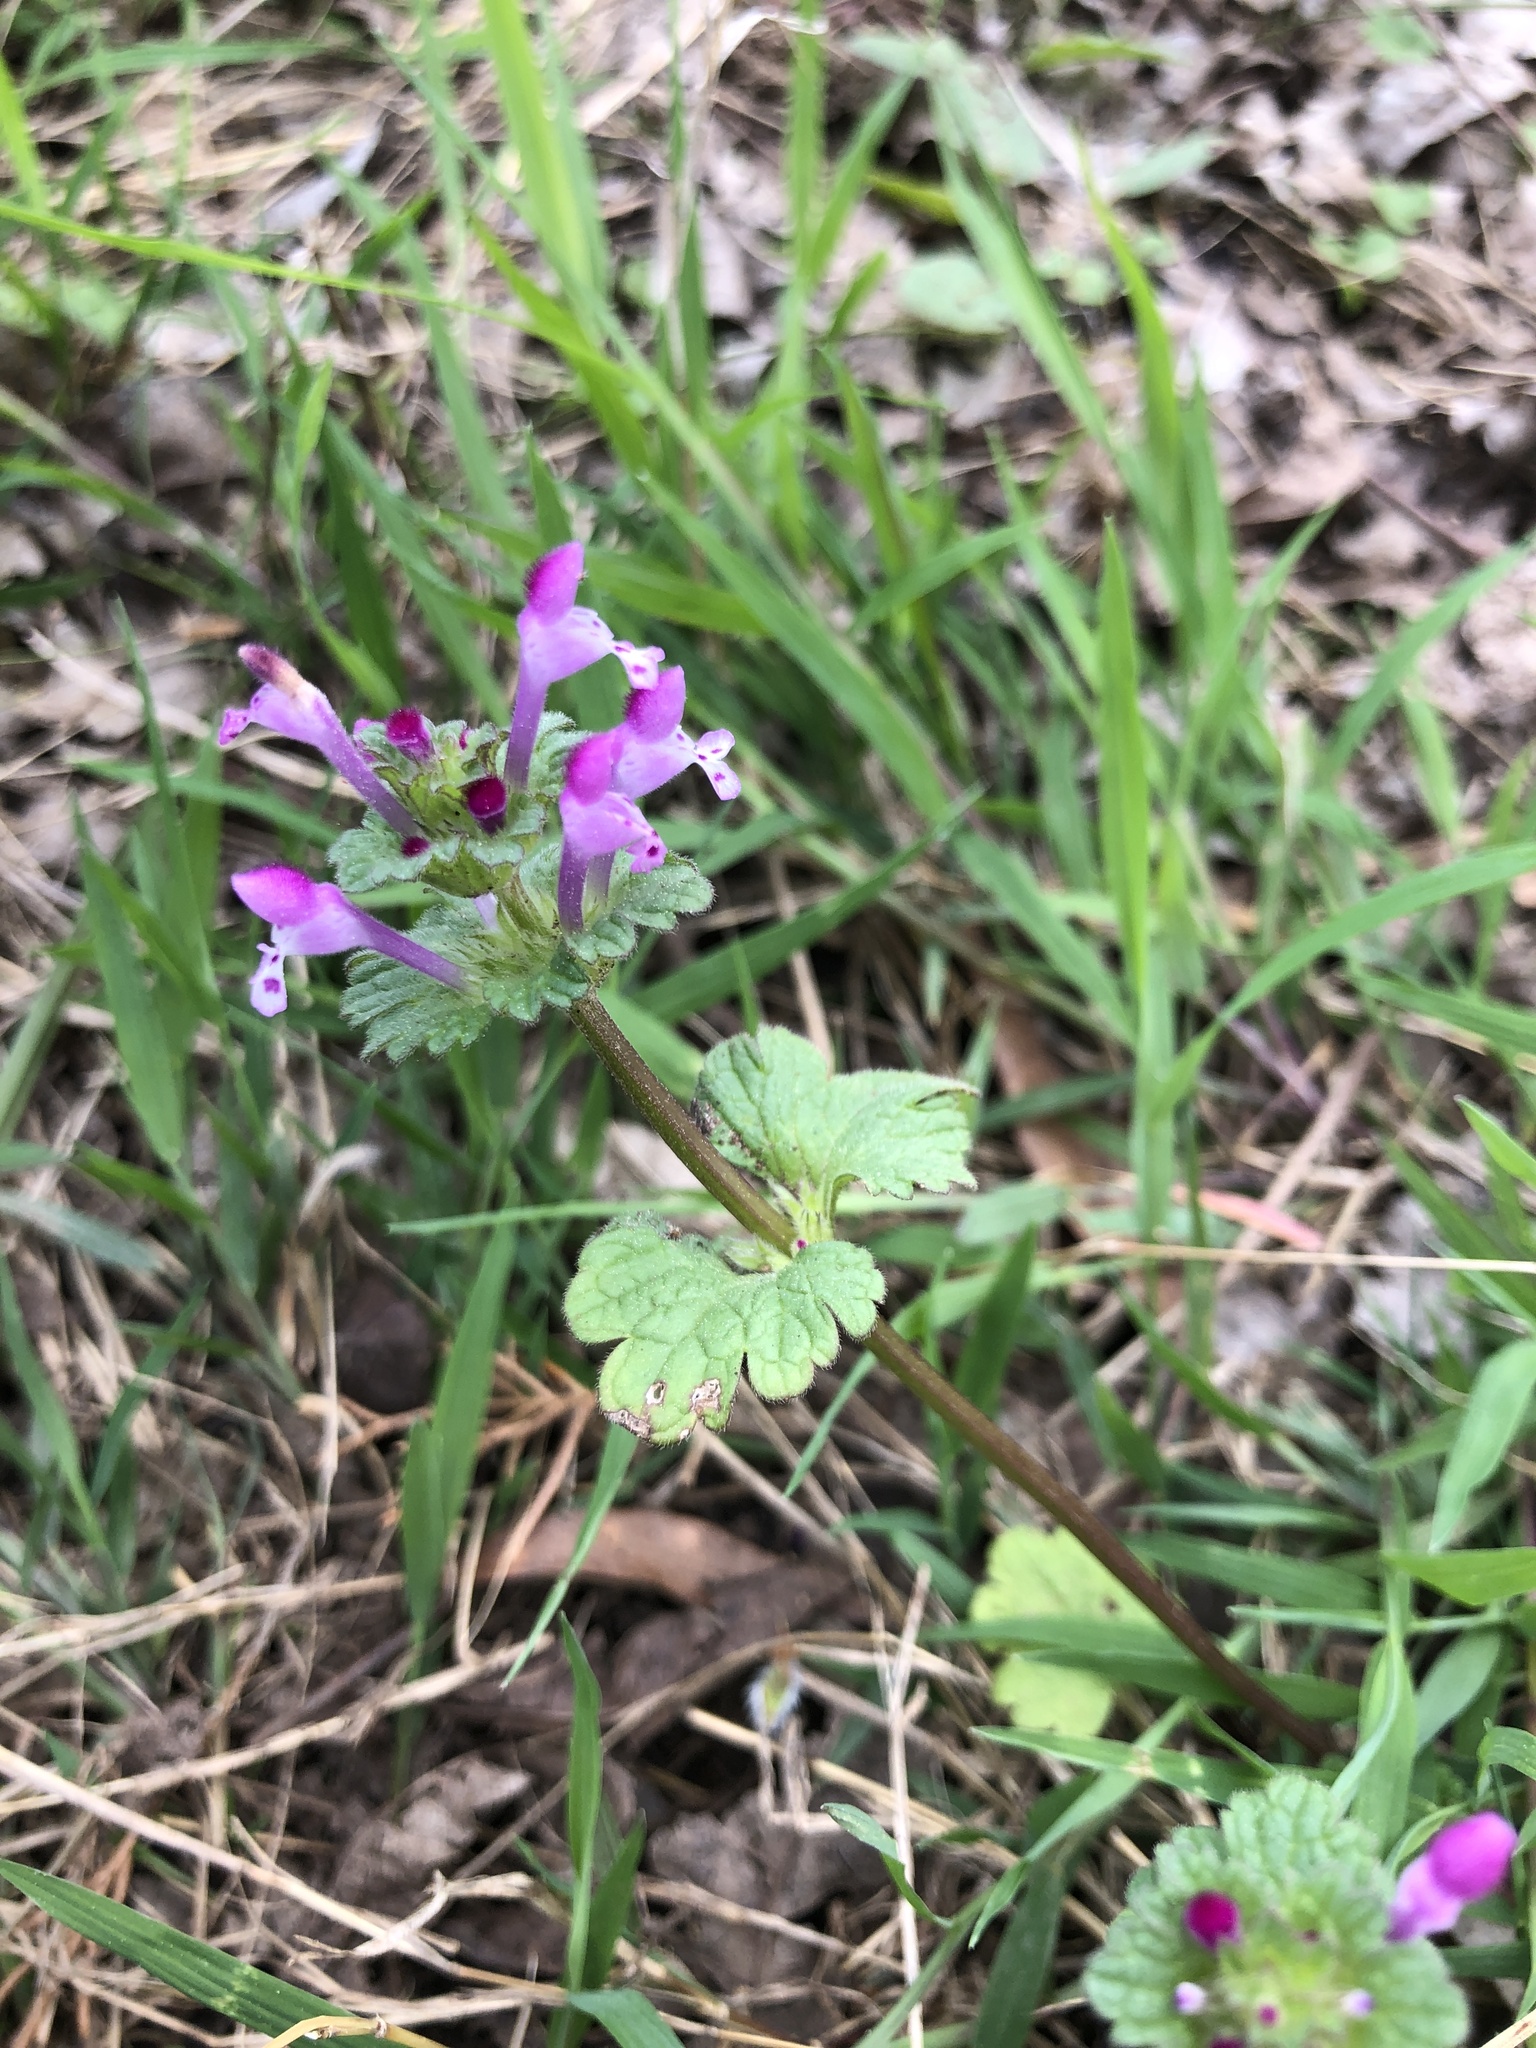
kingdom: Plantae
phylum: Tracheophyta
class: Magnoliopsida
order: Lamiales
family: Lamiaceae
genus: Lamium
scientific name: Lamium amplexicaule
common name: Henbit dead-nettle
